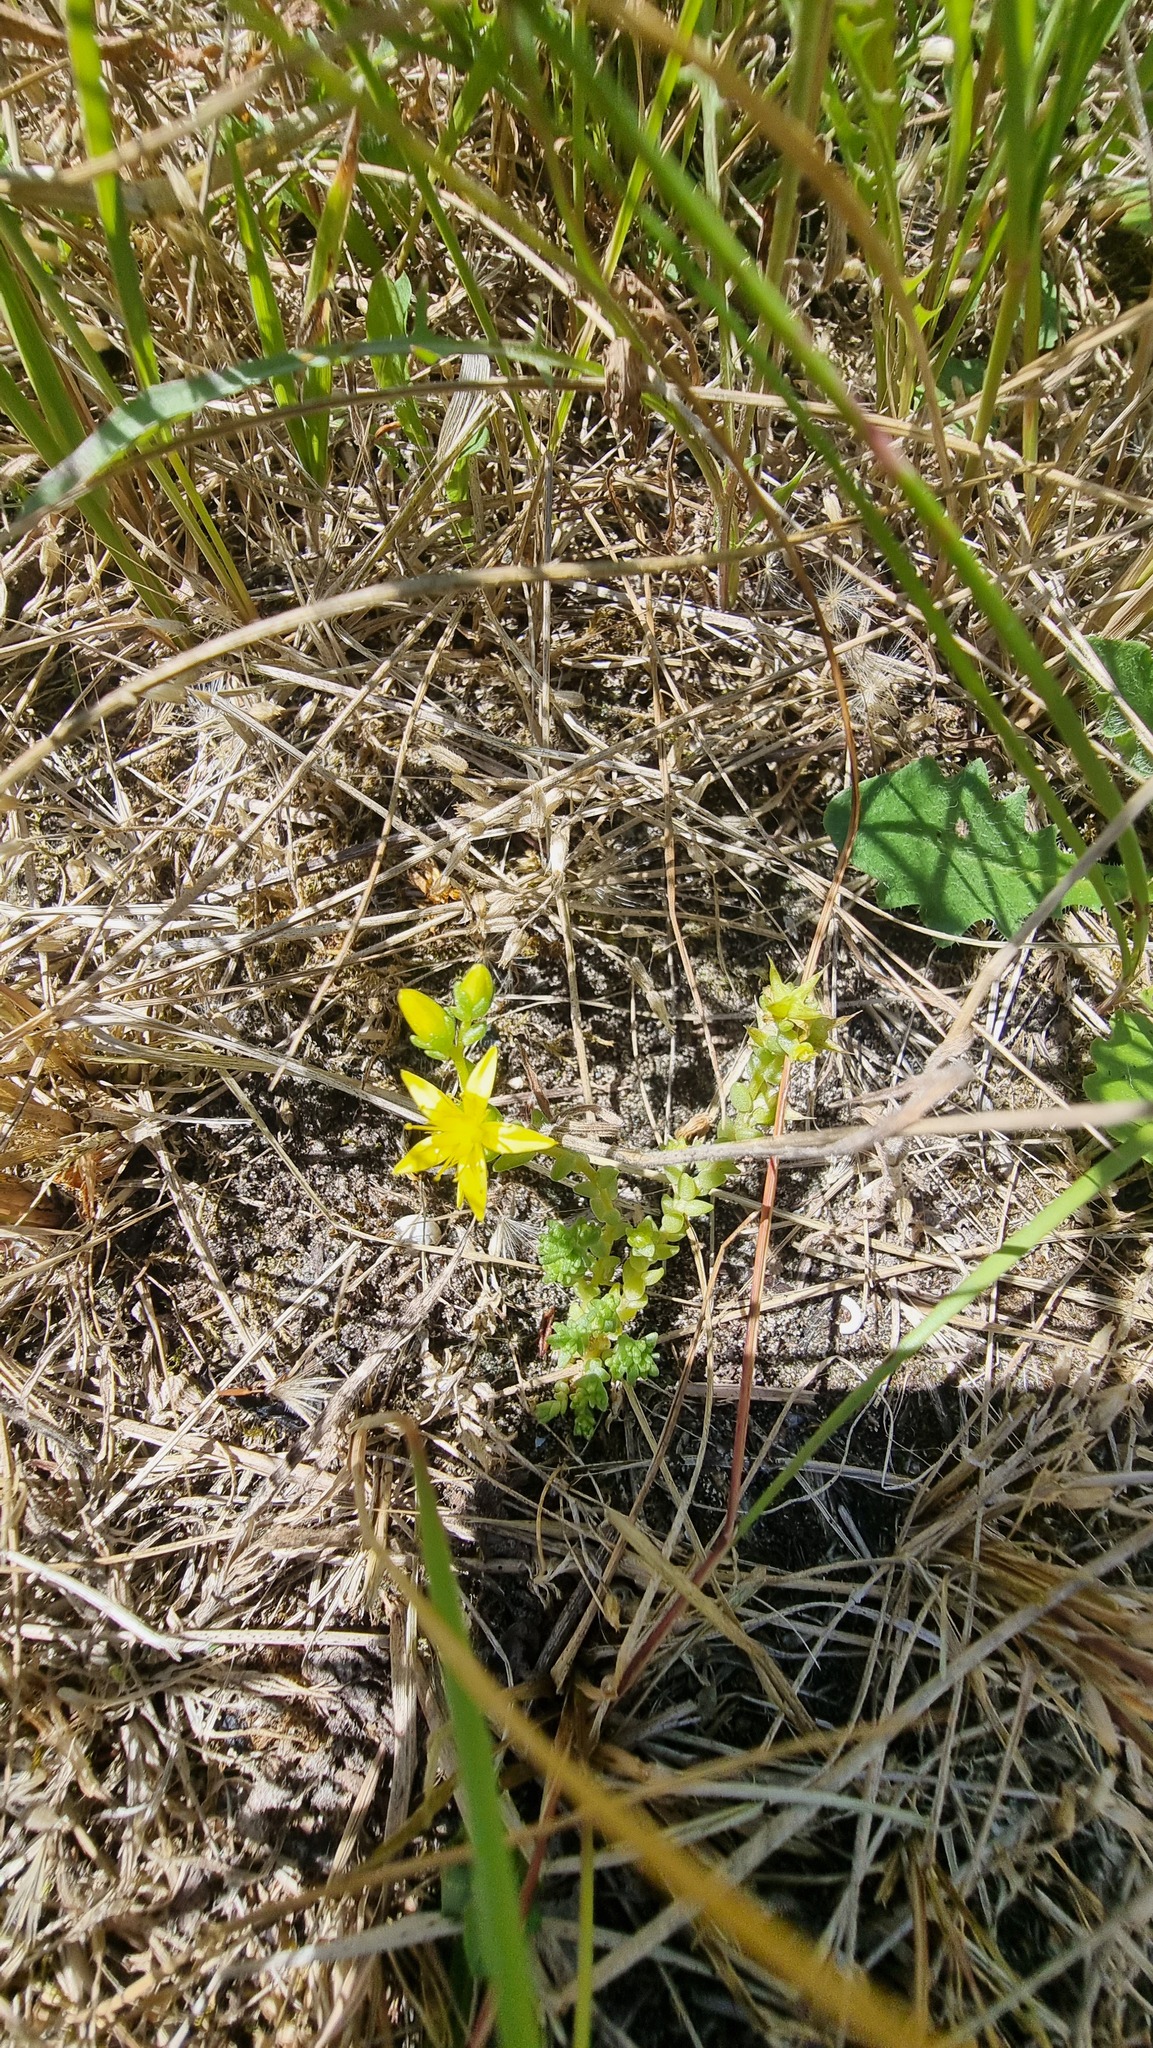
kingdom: Plantae
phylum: Tracheophyta
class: Magnoliopsida
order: Saxifragales
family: Crassulaceae
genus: Sedum
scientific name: Sedum acre
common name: Biting stonecrop
